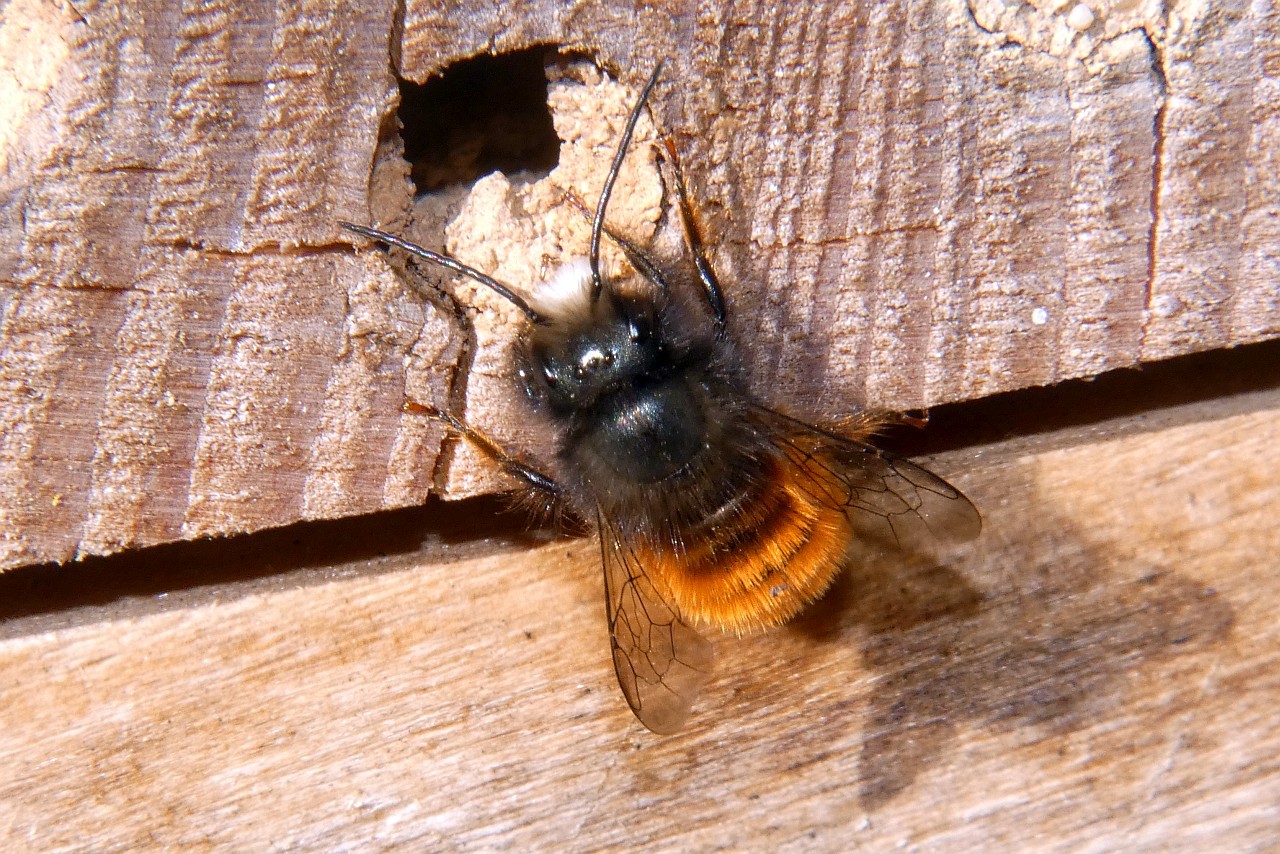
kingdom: Animalia
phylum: Arthropoda
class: Insecta
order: Hymenoptera
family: Megachilidae
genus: Osmia
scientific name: Osmia cornuta
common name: Mason bee
